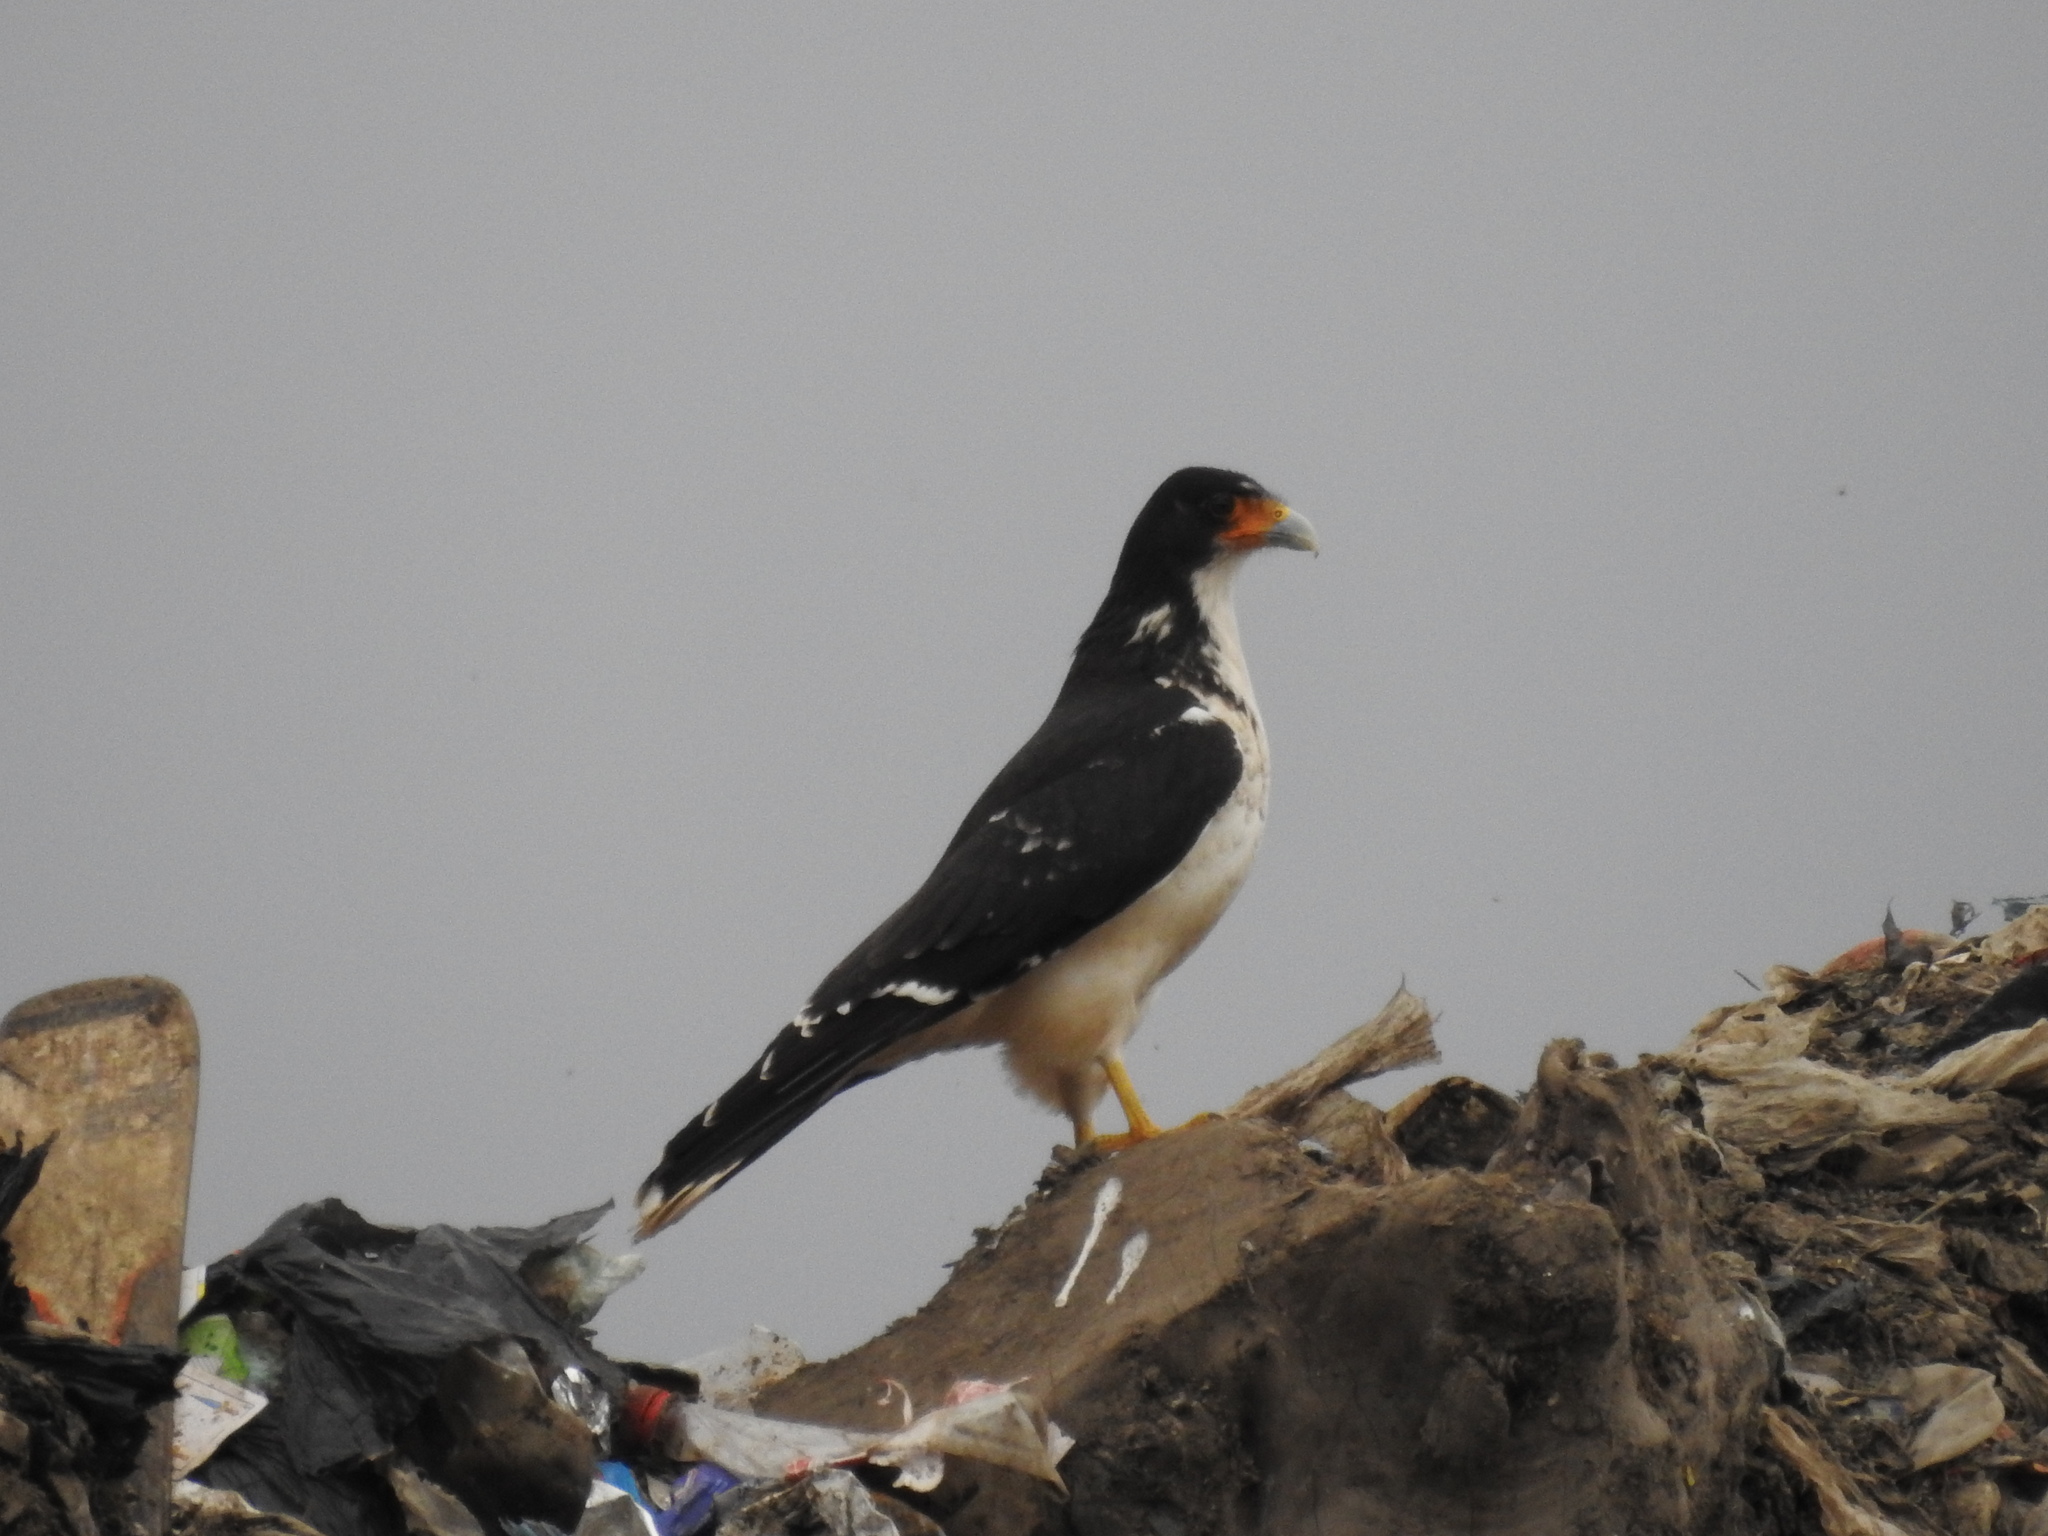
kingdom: Animalia
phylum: Chordata
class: Aves
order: Falconiformes
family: Falconidae
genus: Daptrius
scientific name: Daptrius
